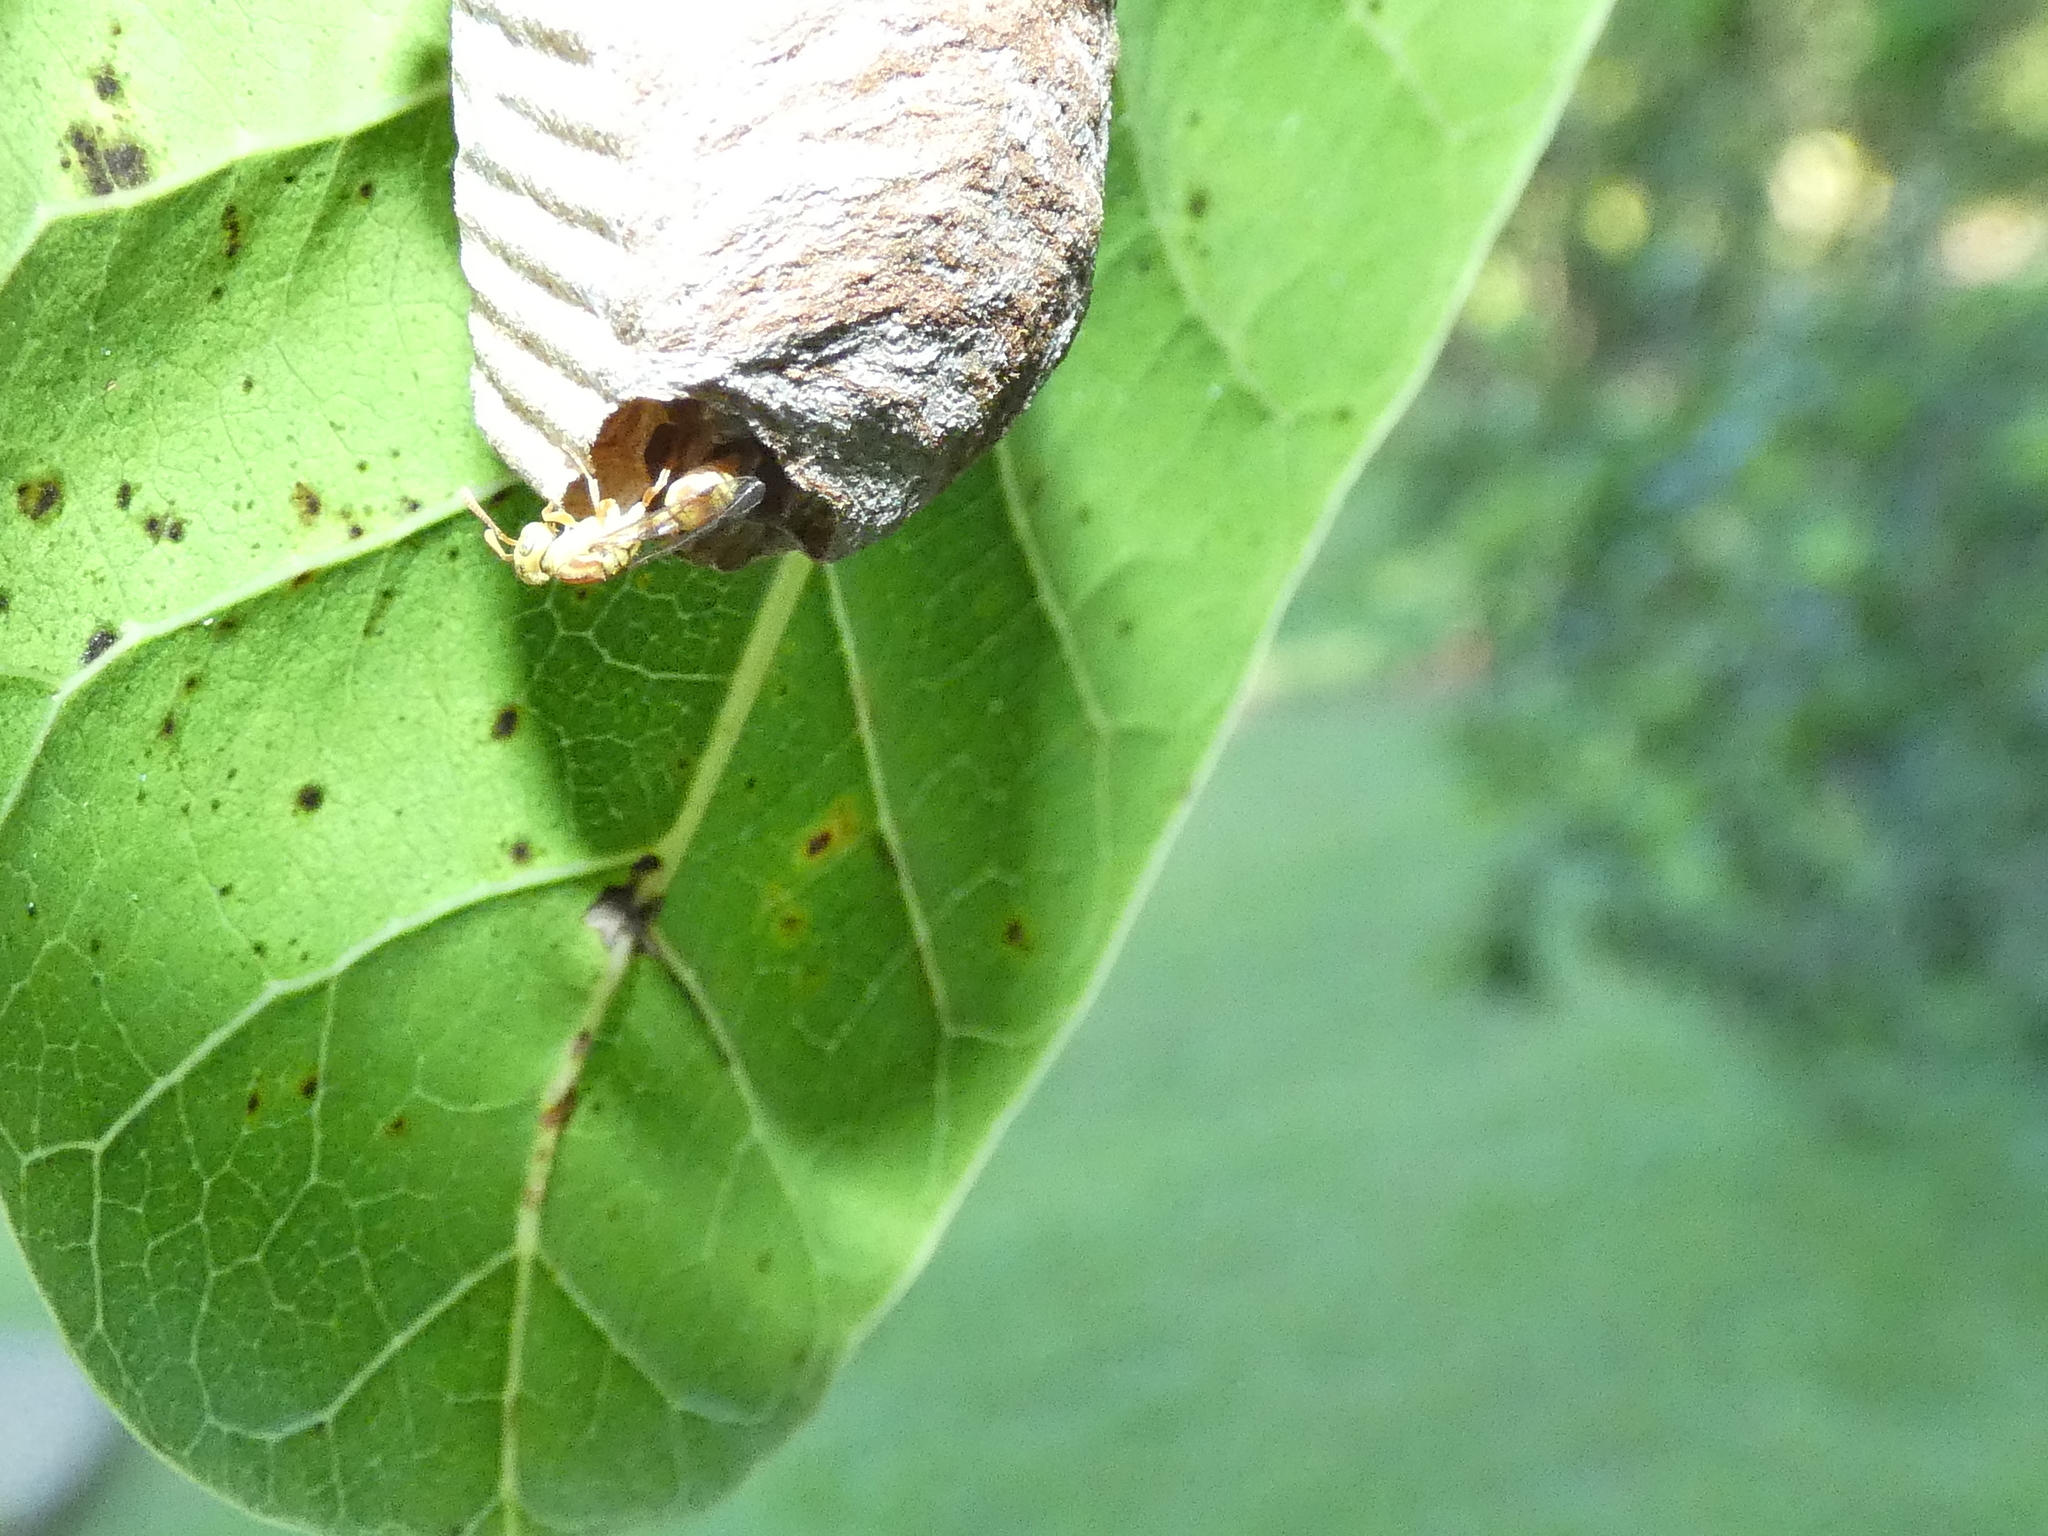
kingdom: Animalia
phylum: Arthropoda
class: Insecta
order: Hymenoptera
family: Vespidae
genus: Protopolybia
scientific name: Protopolybia potiguara
